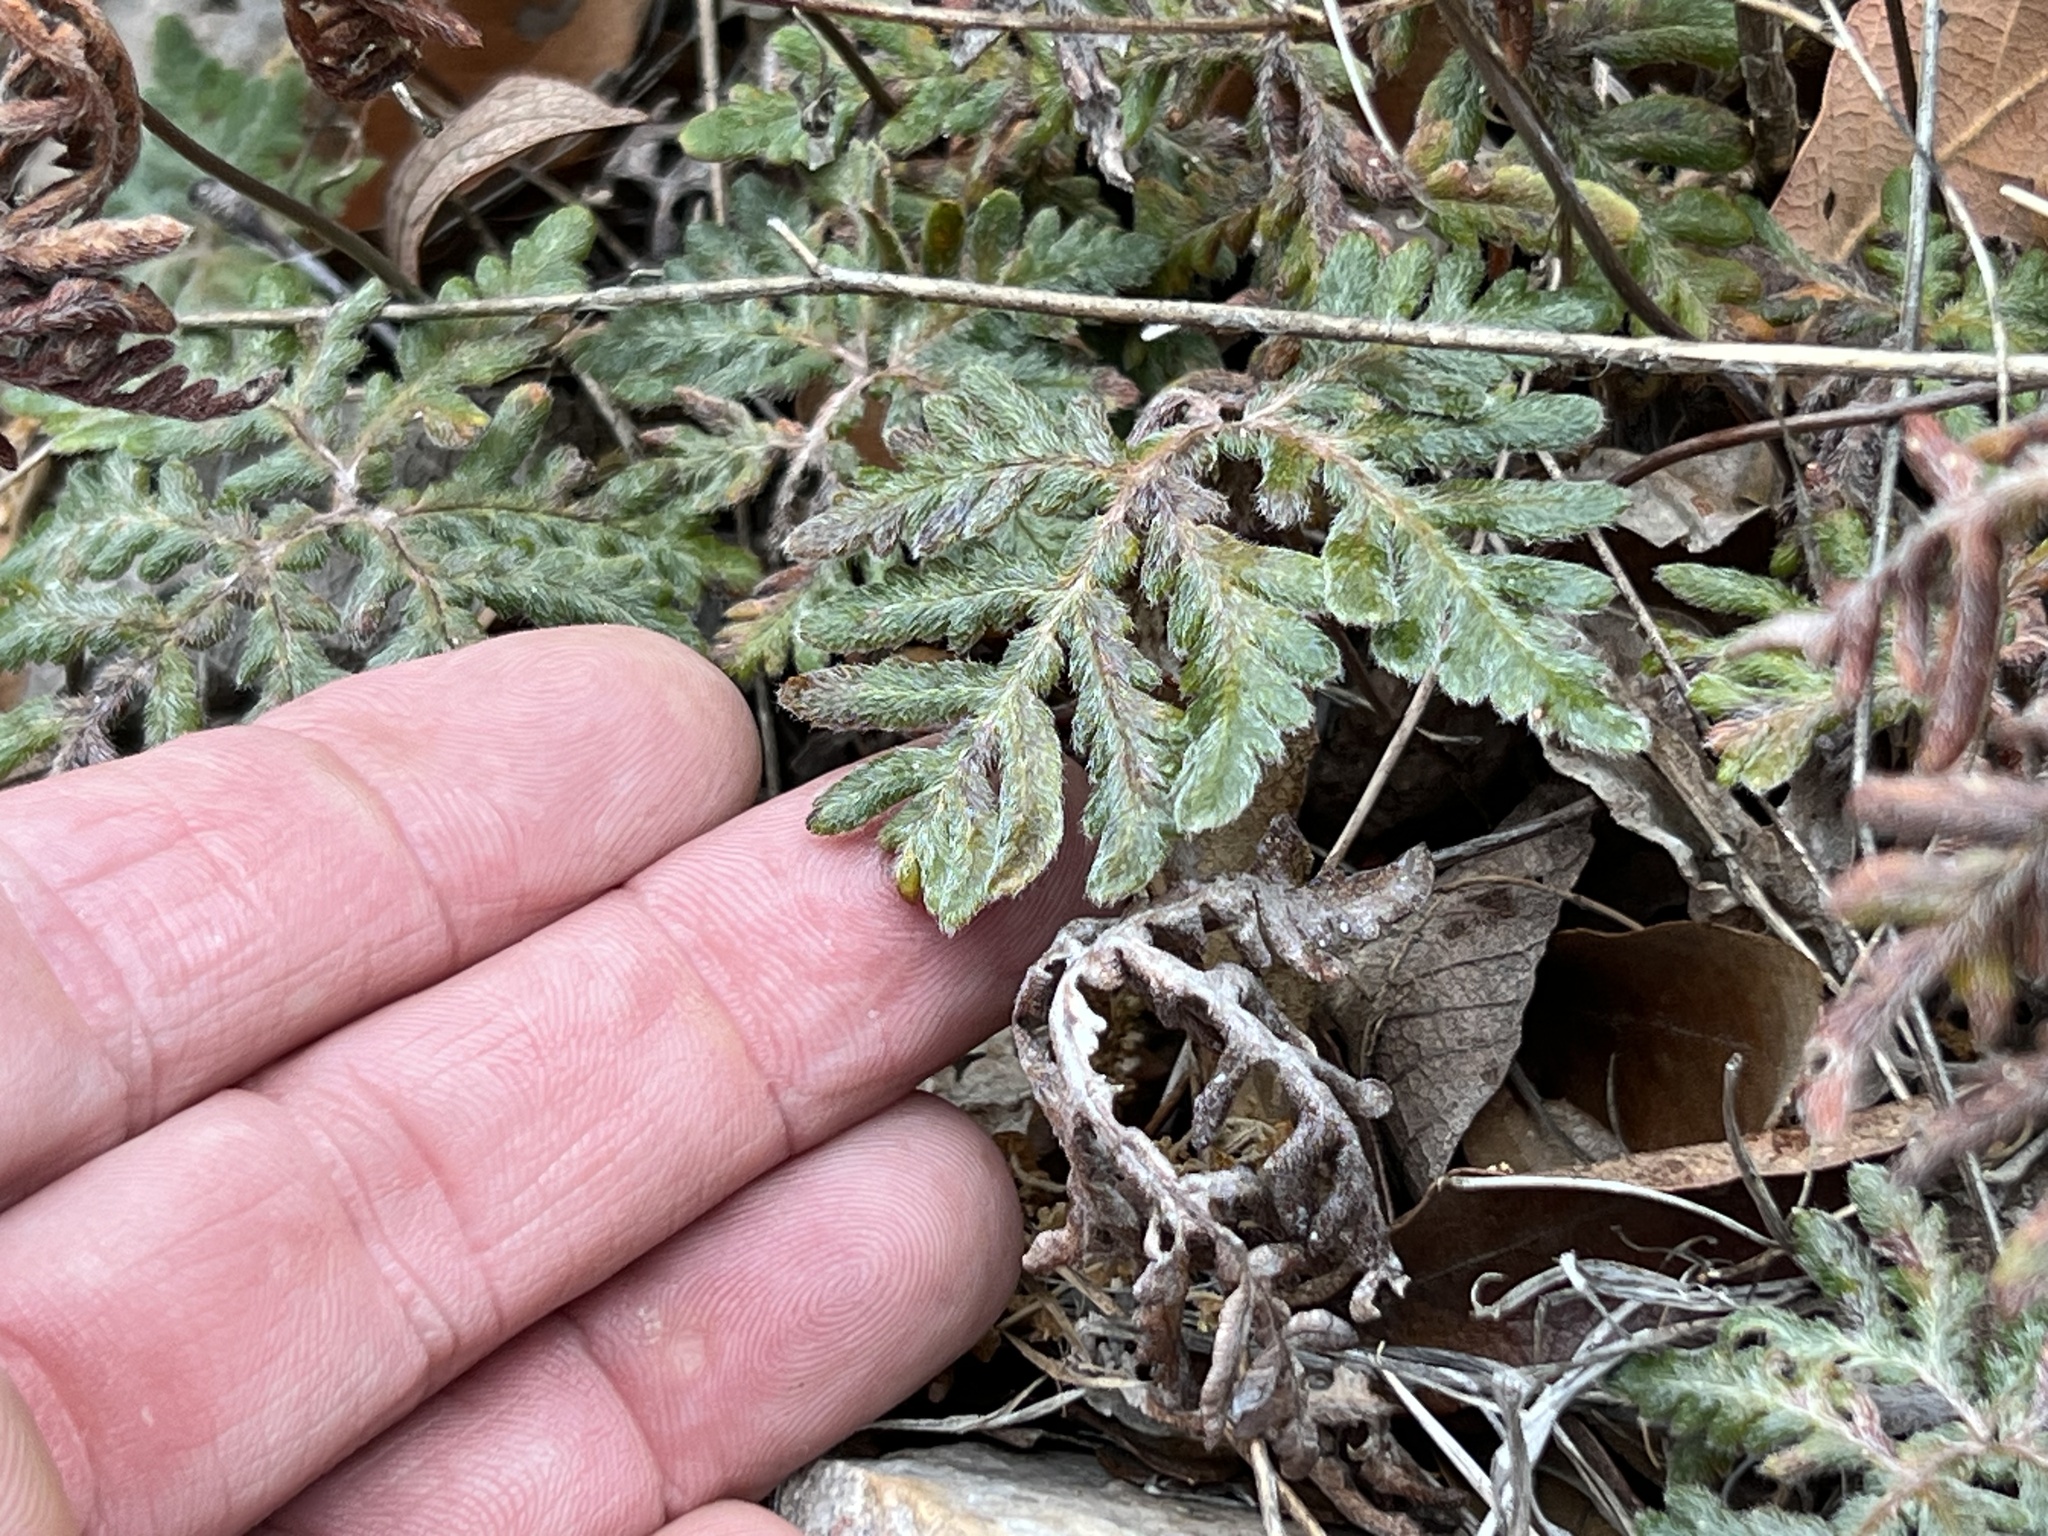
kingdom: Plantae
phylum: Tracheophyta
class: Polypodiopsida
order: Polypodiales
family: Pteridaceae
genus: Bommeria
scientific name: Bommeria hispida
